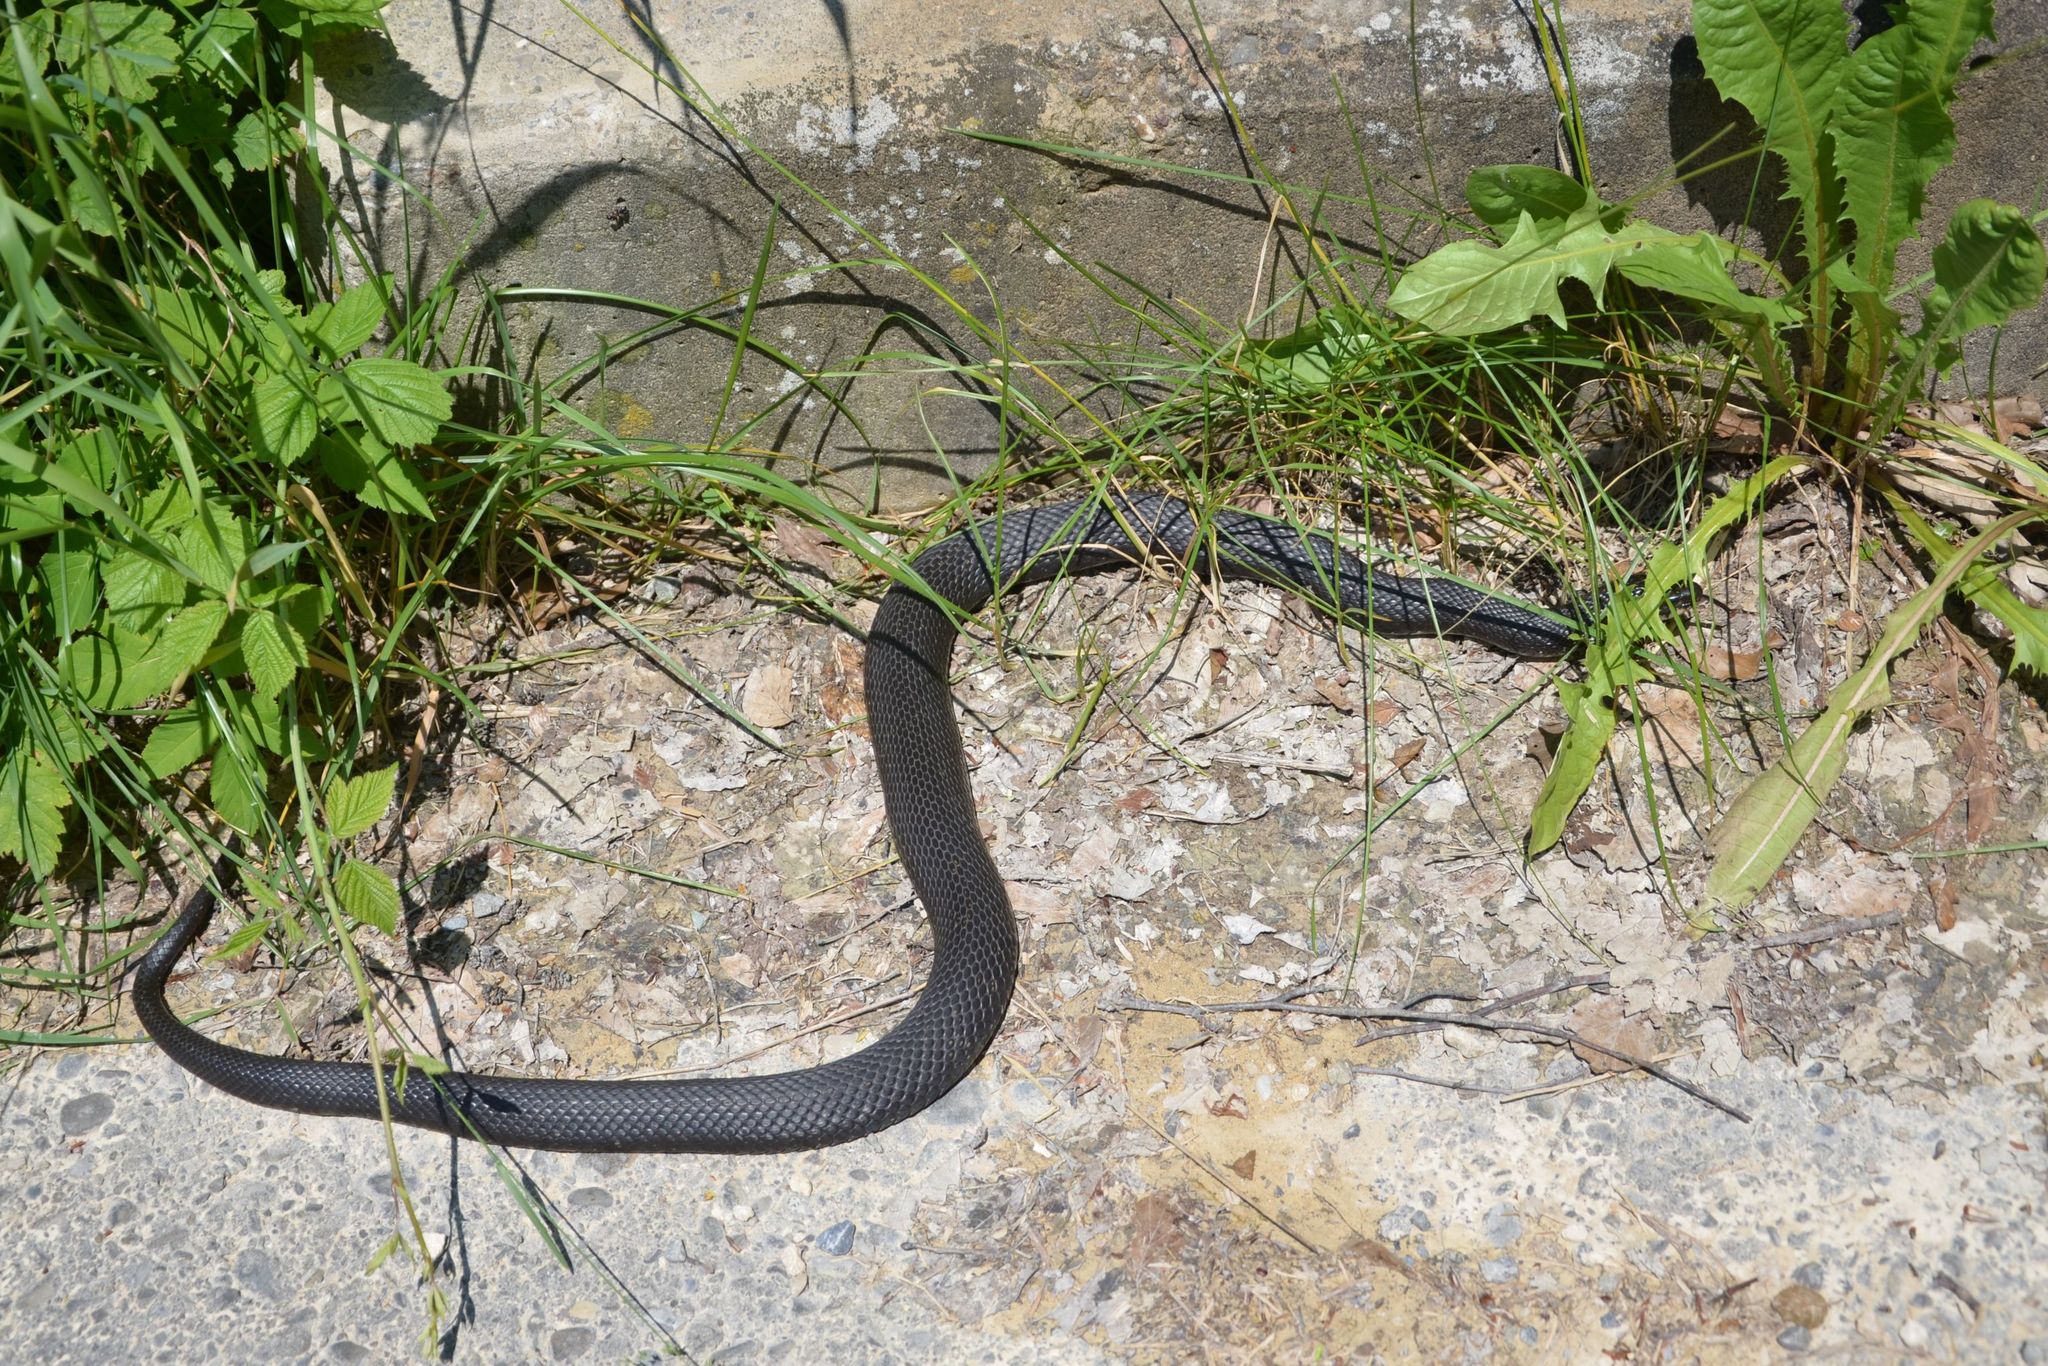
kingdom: Animalia
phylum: Chordata
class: Squamata
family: Colubridae
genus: Natrix
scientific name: Natrix helvetica
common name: Banded grass snake
